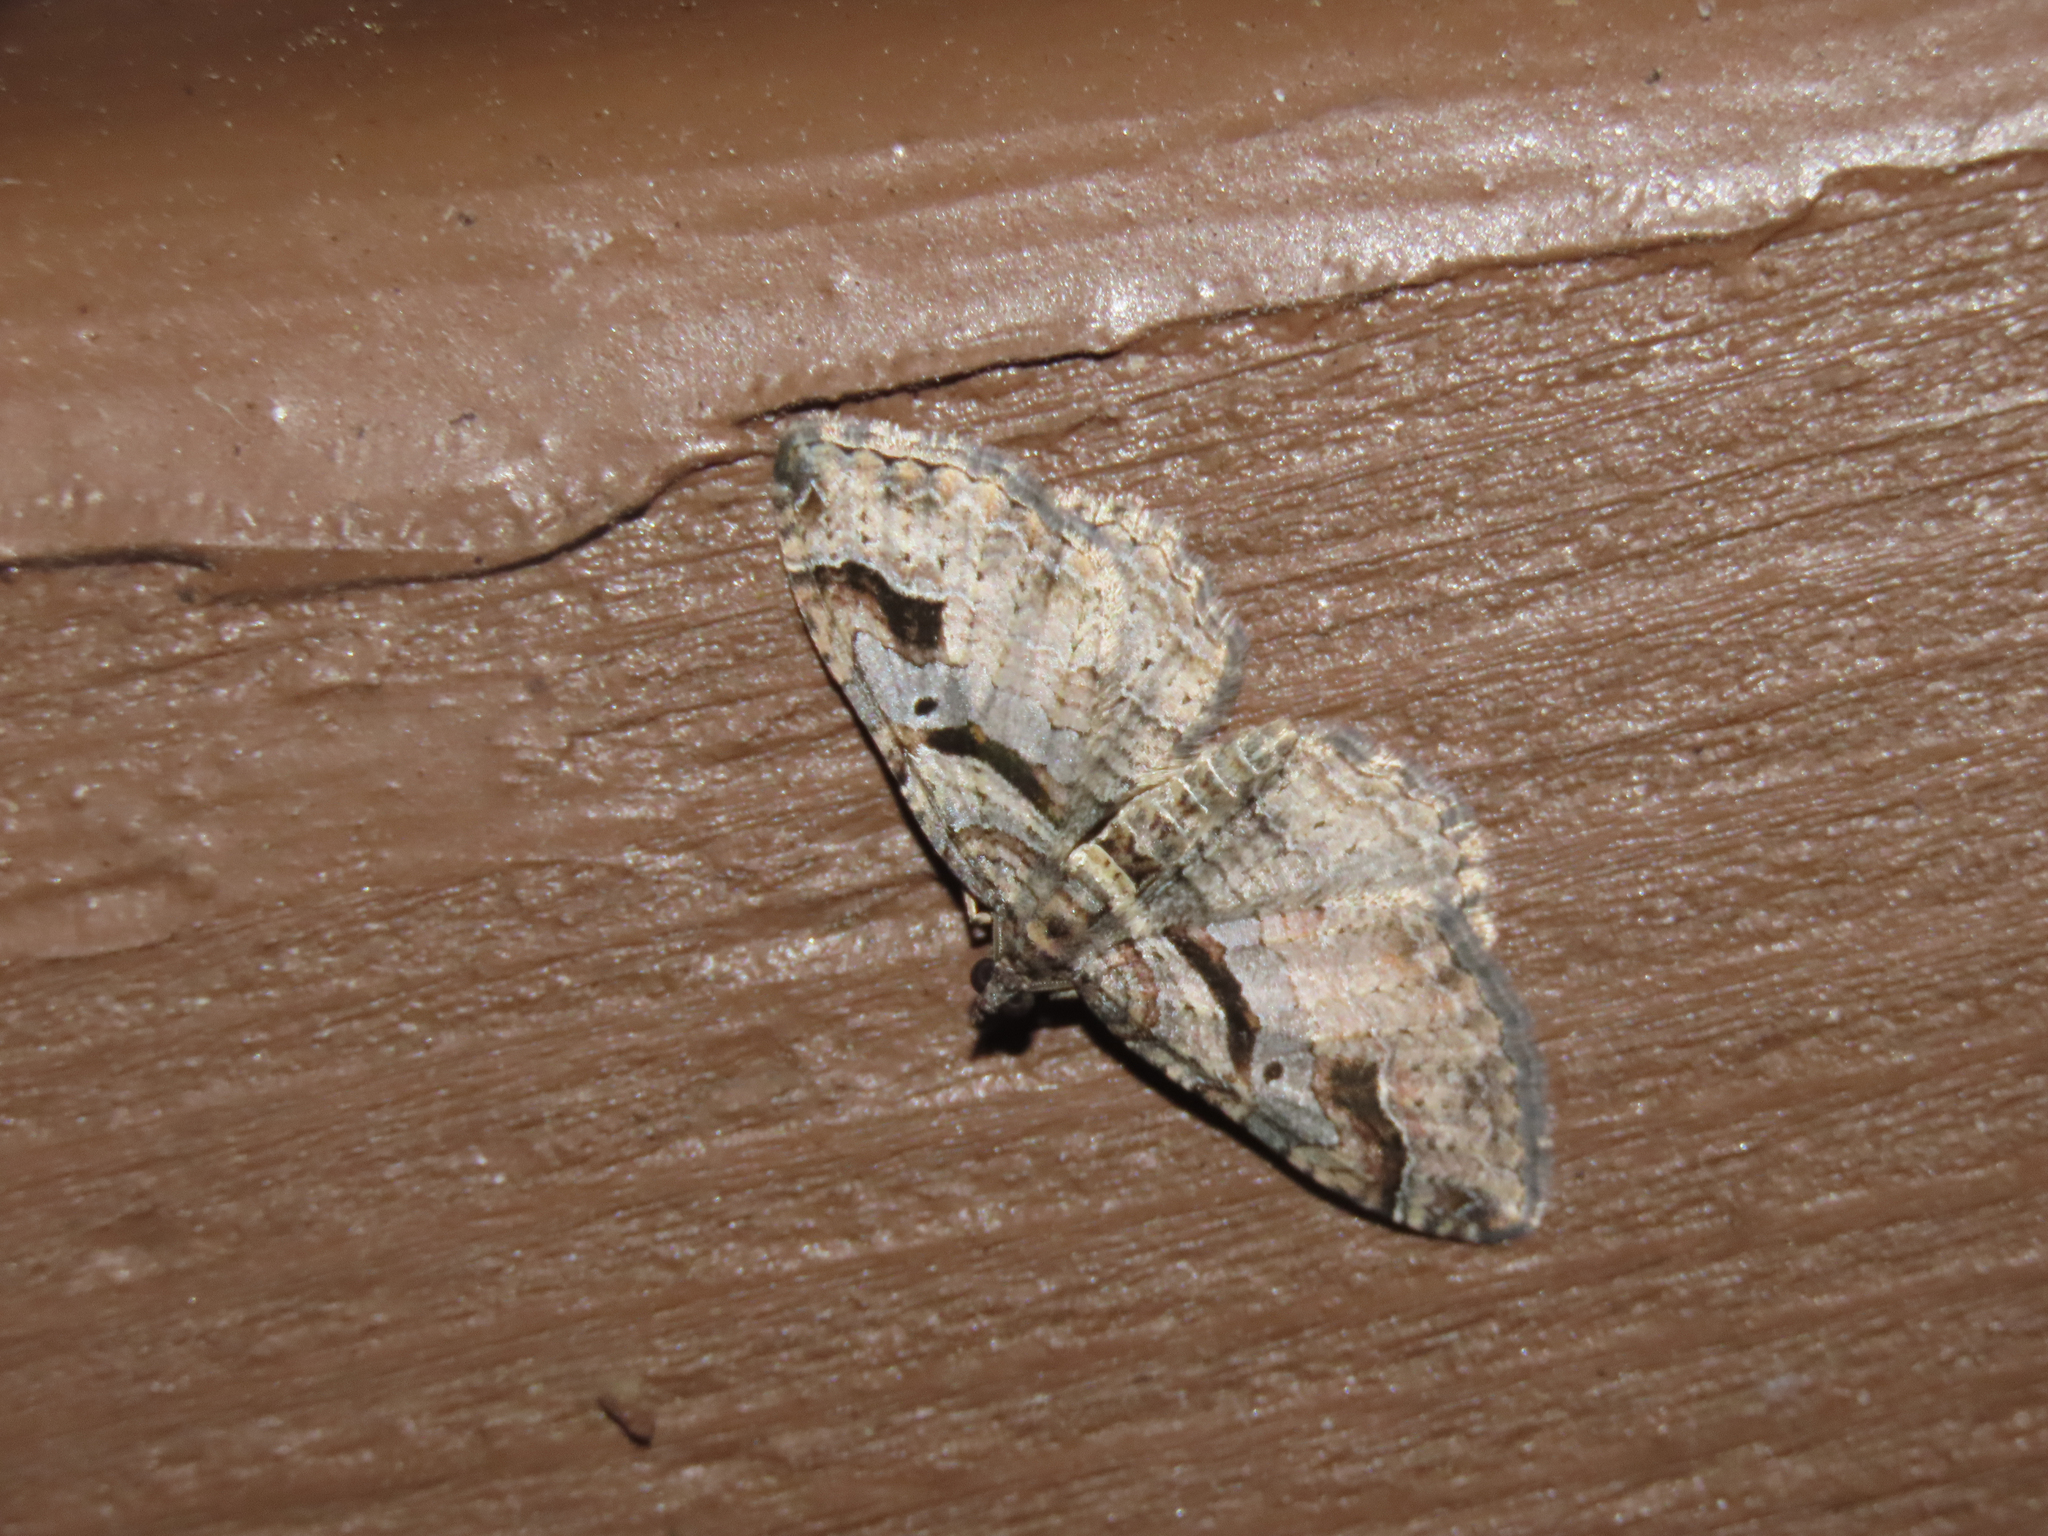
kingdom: Animalia
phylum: Arthropoda
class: Insecta
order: Lepidoptera
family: Geometridae
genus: Costaconvexa
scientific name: Costaconvexa centrostrigaria
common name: Bent-line carpet
